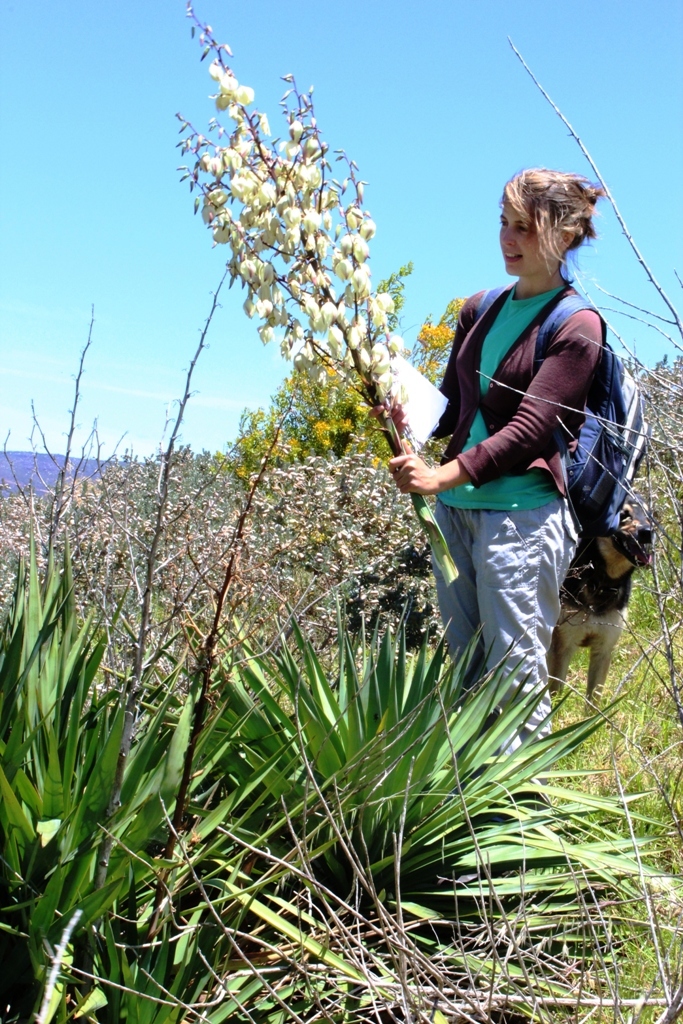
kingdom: Plantae
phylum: Tracheophyta
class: Liliopsida
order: Asparagales
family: Asparagaceae
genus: Yucca
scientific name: Yucca gloriosa
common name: Spanish-dagger
